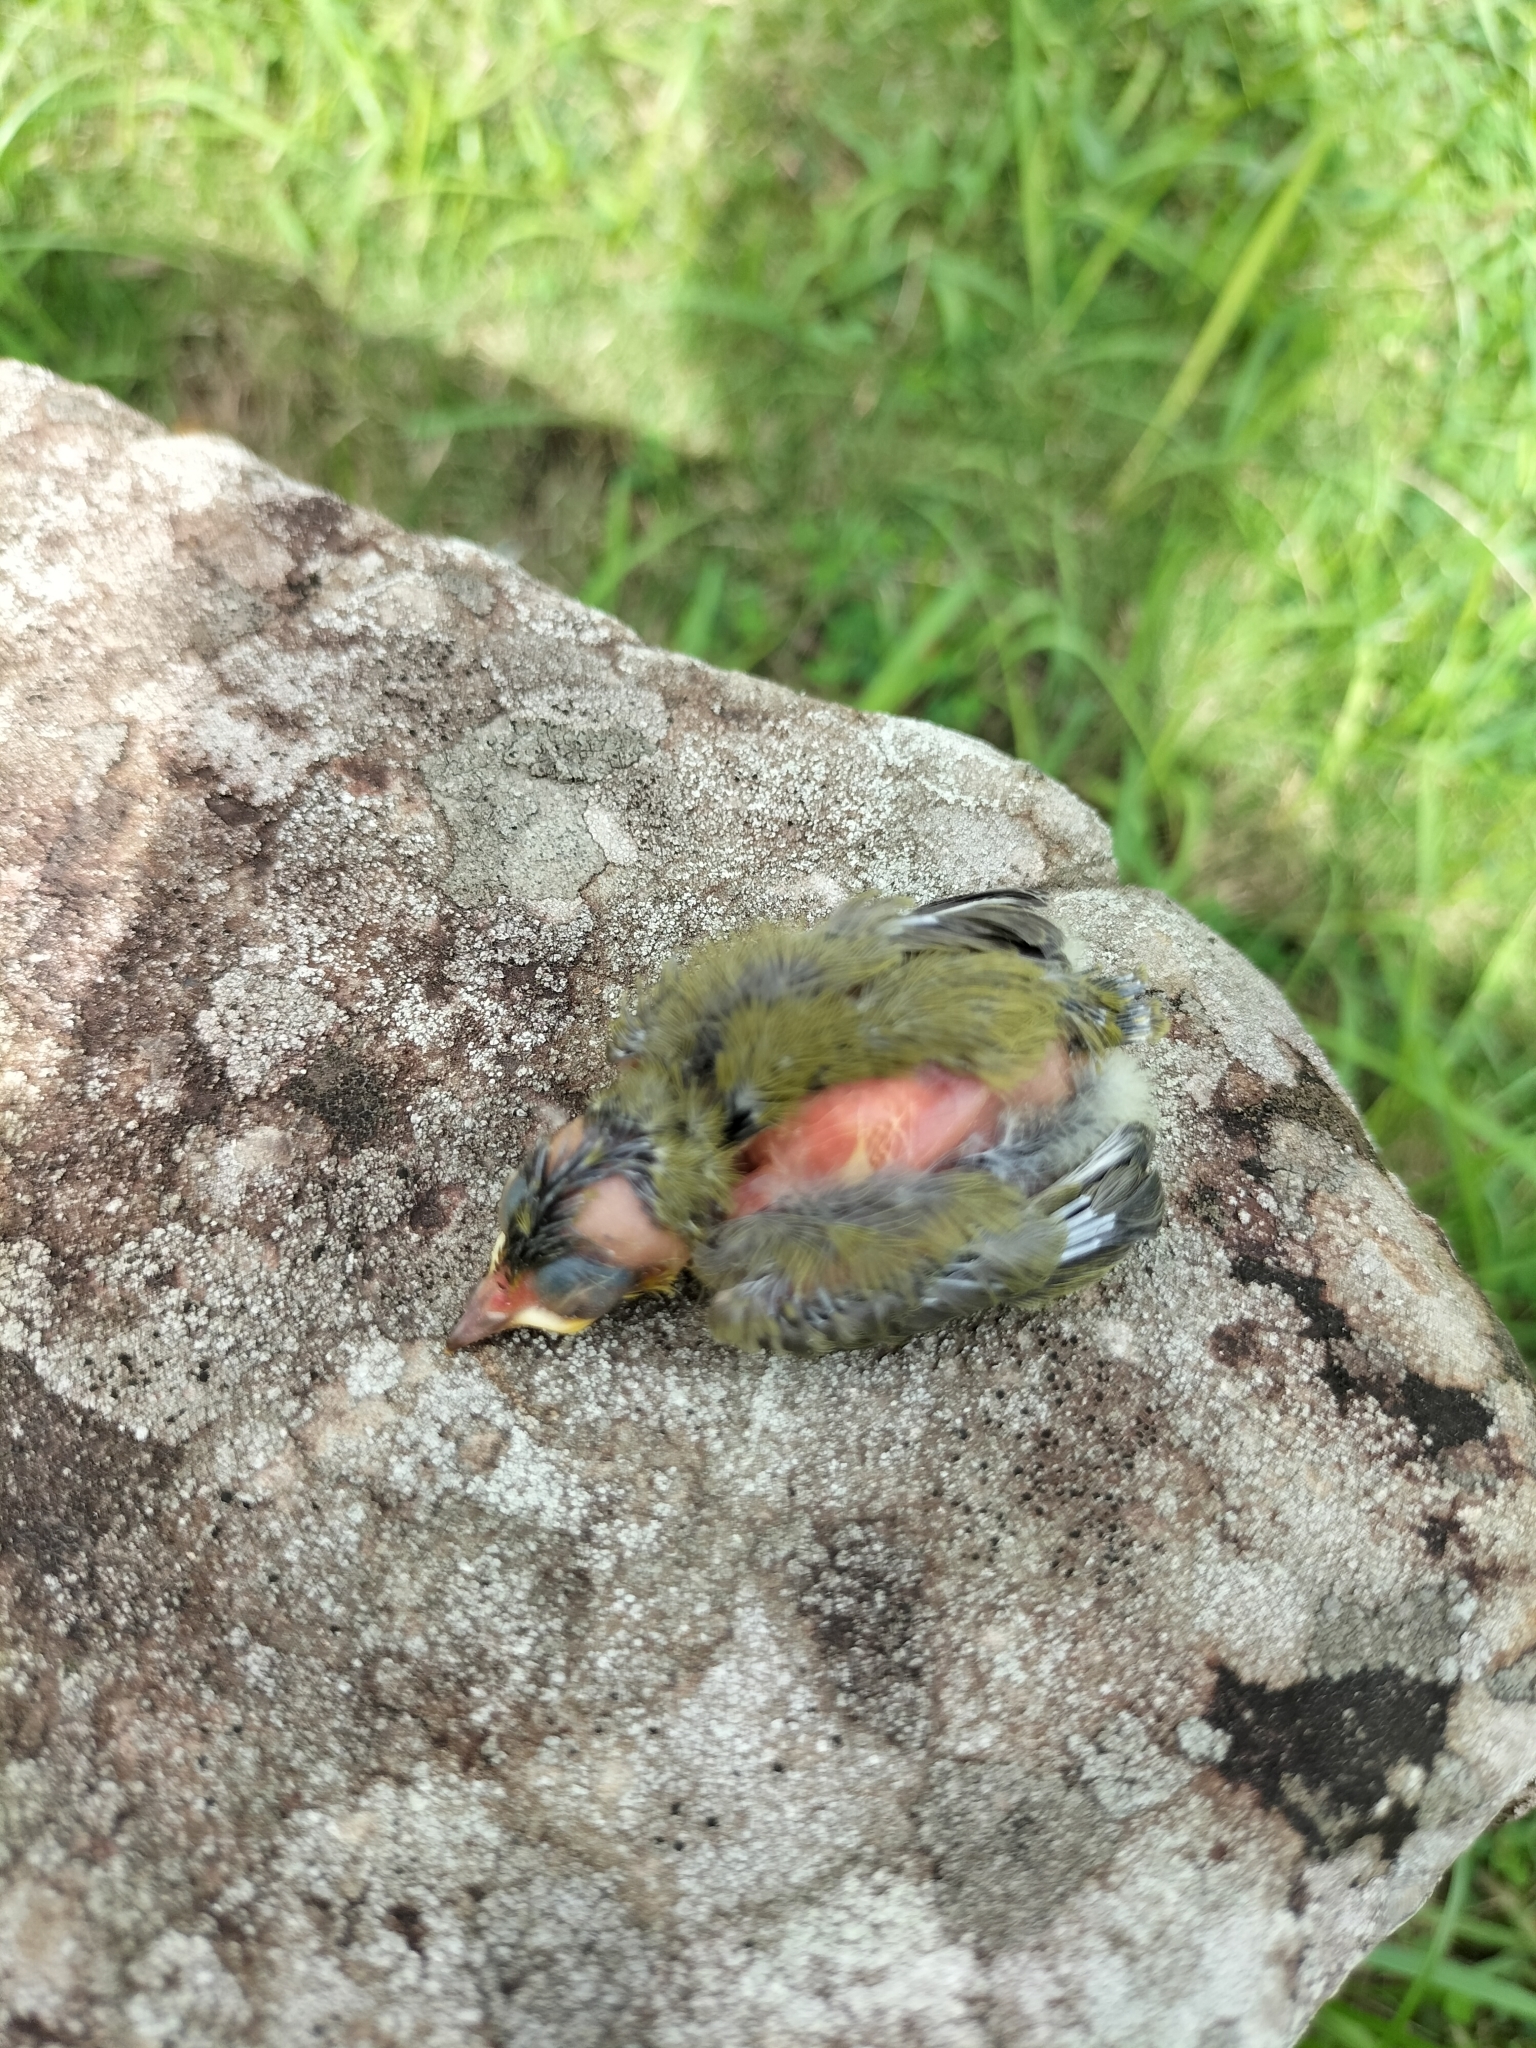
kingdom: Animalia
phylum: Chordata
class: Aves
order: Passeriformes
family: Zosteropidae
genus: Zosterops
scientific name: Zosterops simplex
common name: Swinhoe's white-eye
